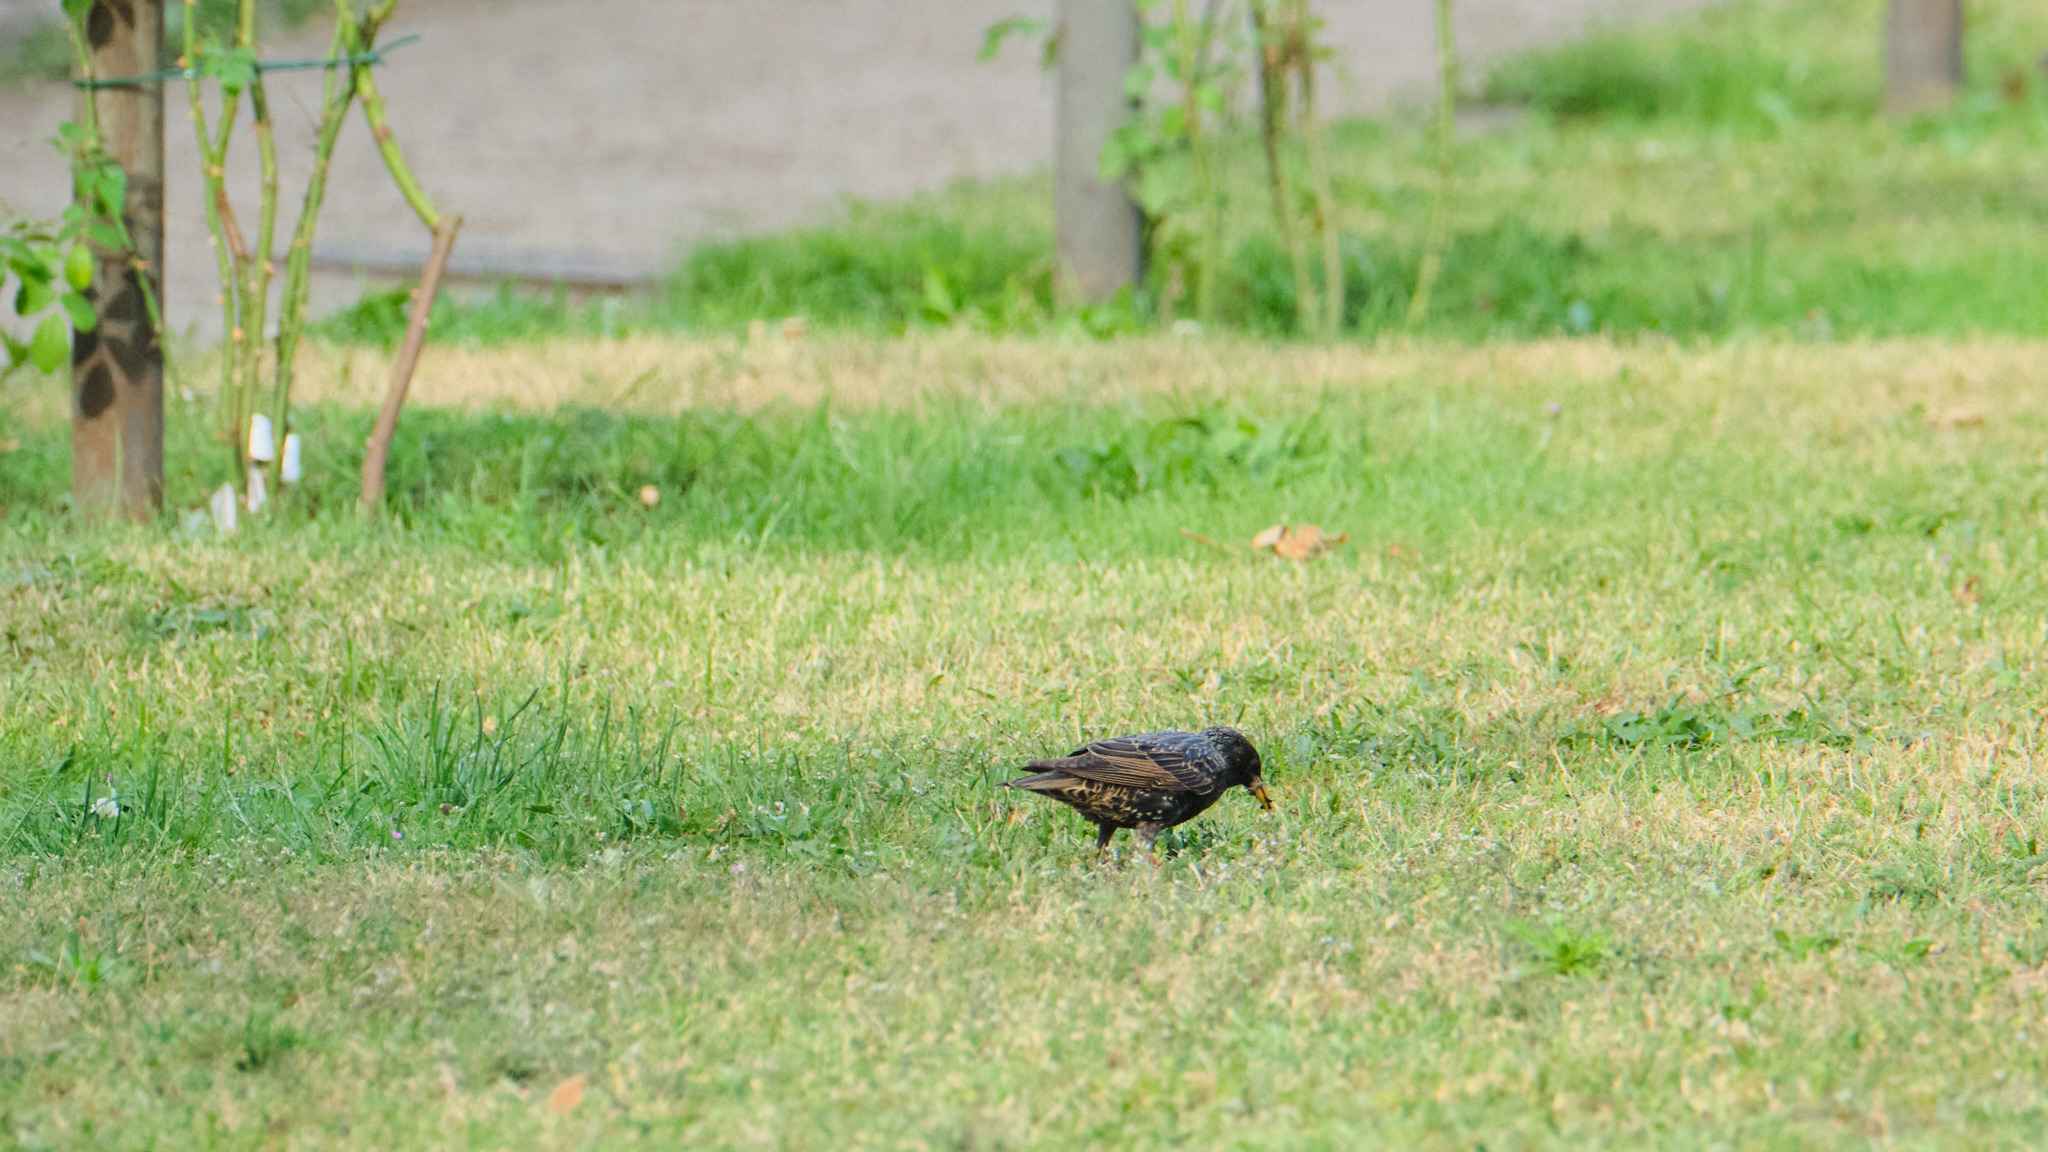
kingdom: Animalia
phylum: Chordata
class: Aves
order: Passeriformes
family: Sturnidae
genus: Sturnus
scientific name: Sturnus vulgaris
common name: Common starling
